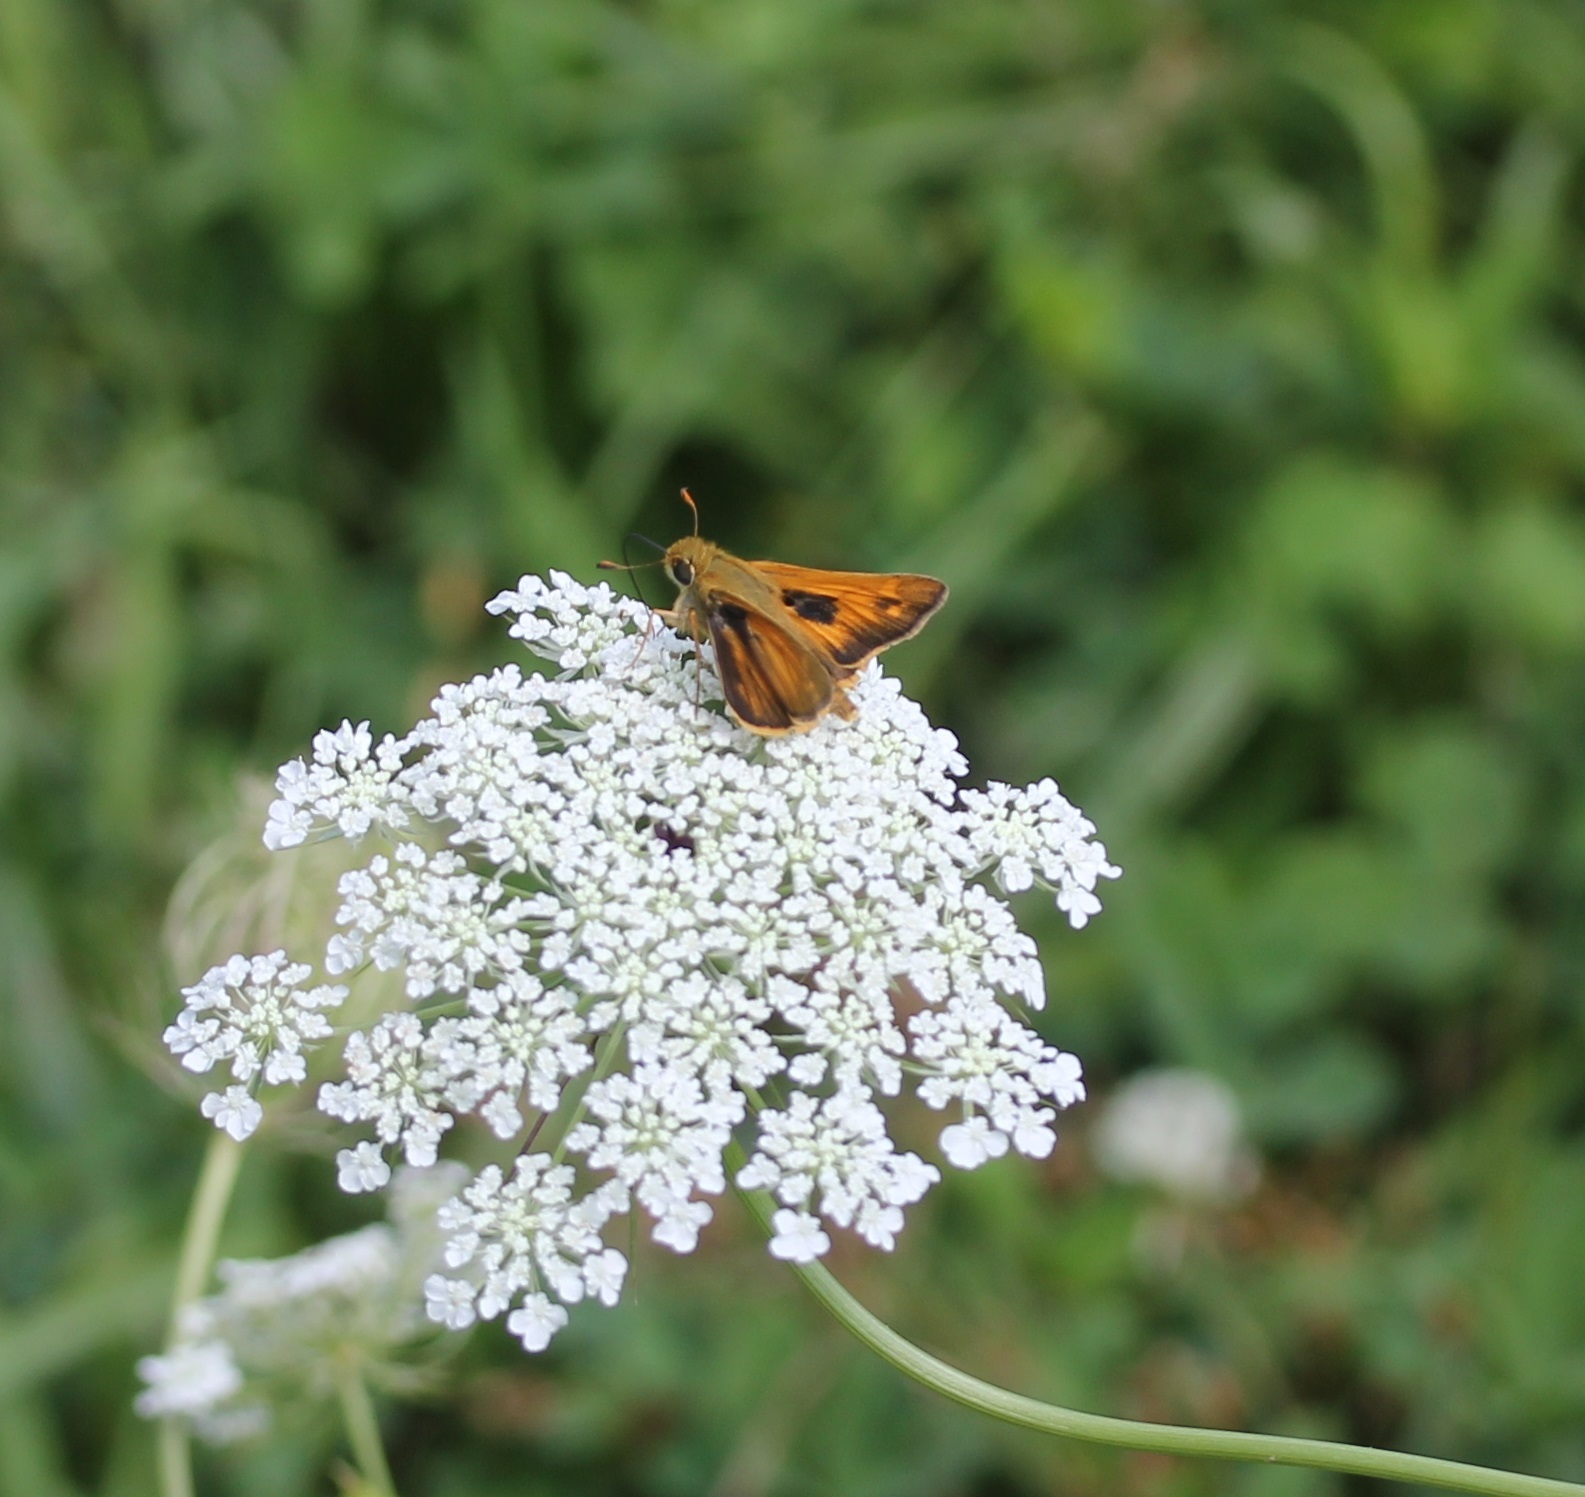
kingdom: Animalia
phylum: Arthropoda
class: Insecta
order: Lepidoptera
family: Hesperiidae
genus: Atalopedes
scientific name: Atalopedes
